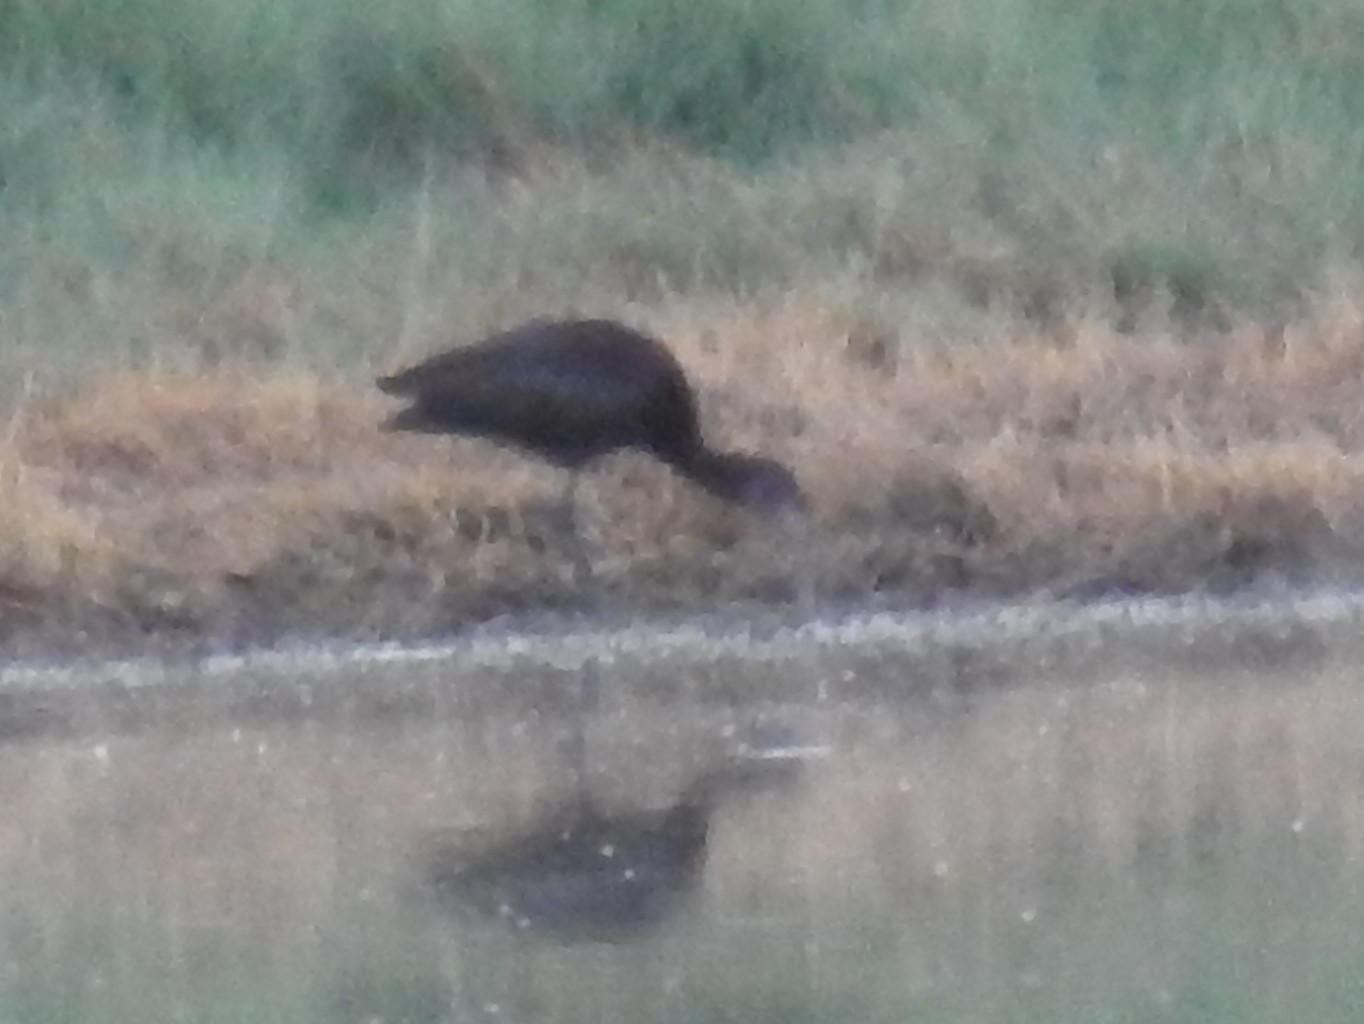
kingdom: Animalia
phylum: Chordata
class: Aves
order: Pelecaniformes
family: Threskiornithidae
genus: Plegadis
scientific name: Plegadis chihi
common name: White-faced ibis
